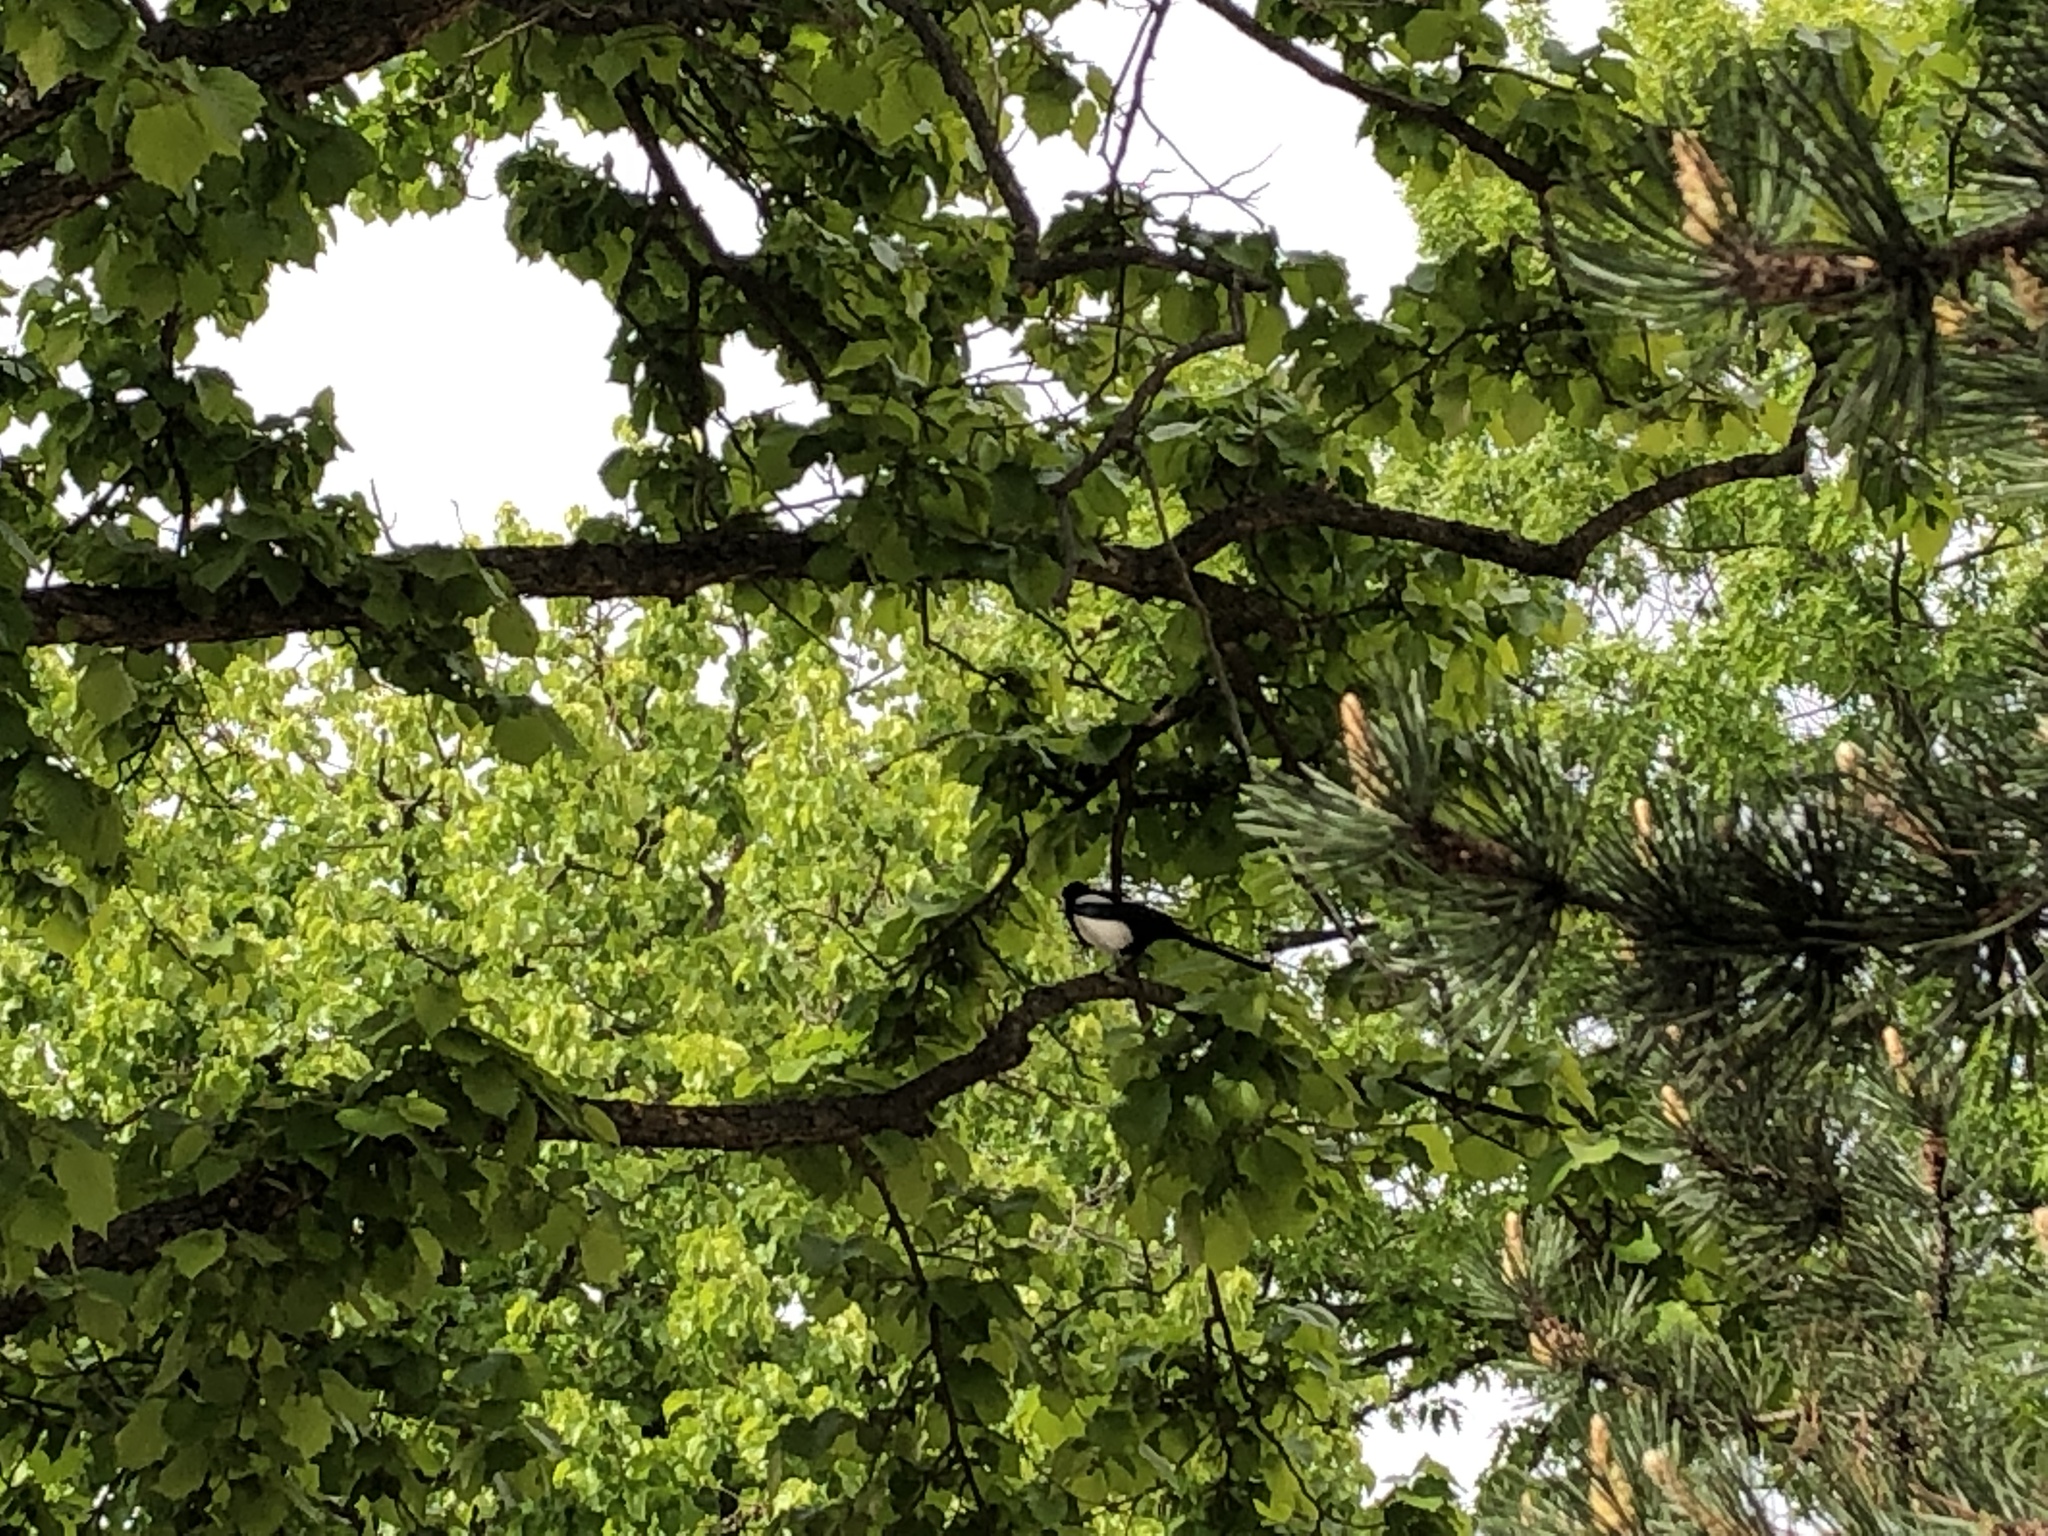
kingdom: Animalia
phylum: Chordata
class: Aves
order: Passeriformes
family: Corvidae
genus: Pica
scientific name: Pica pica
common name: Eurasian magpie
